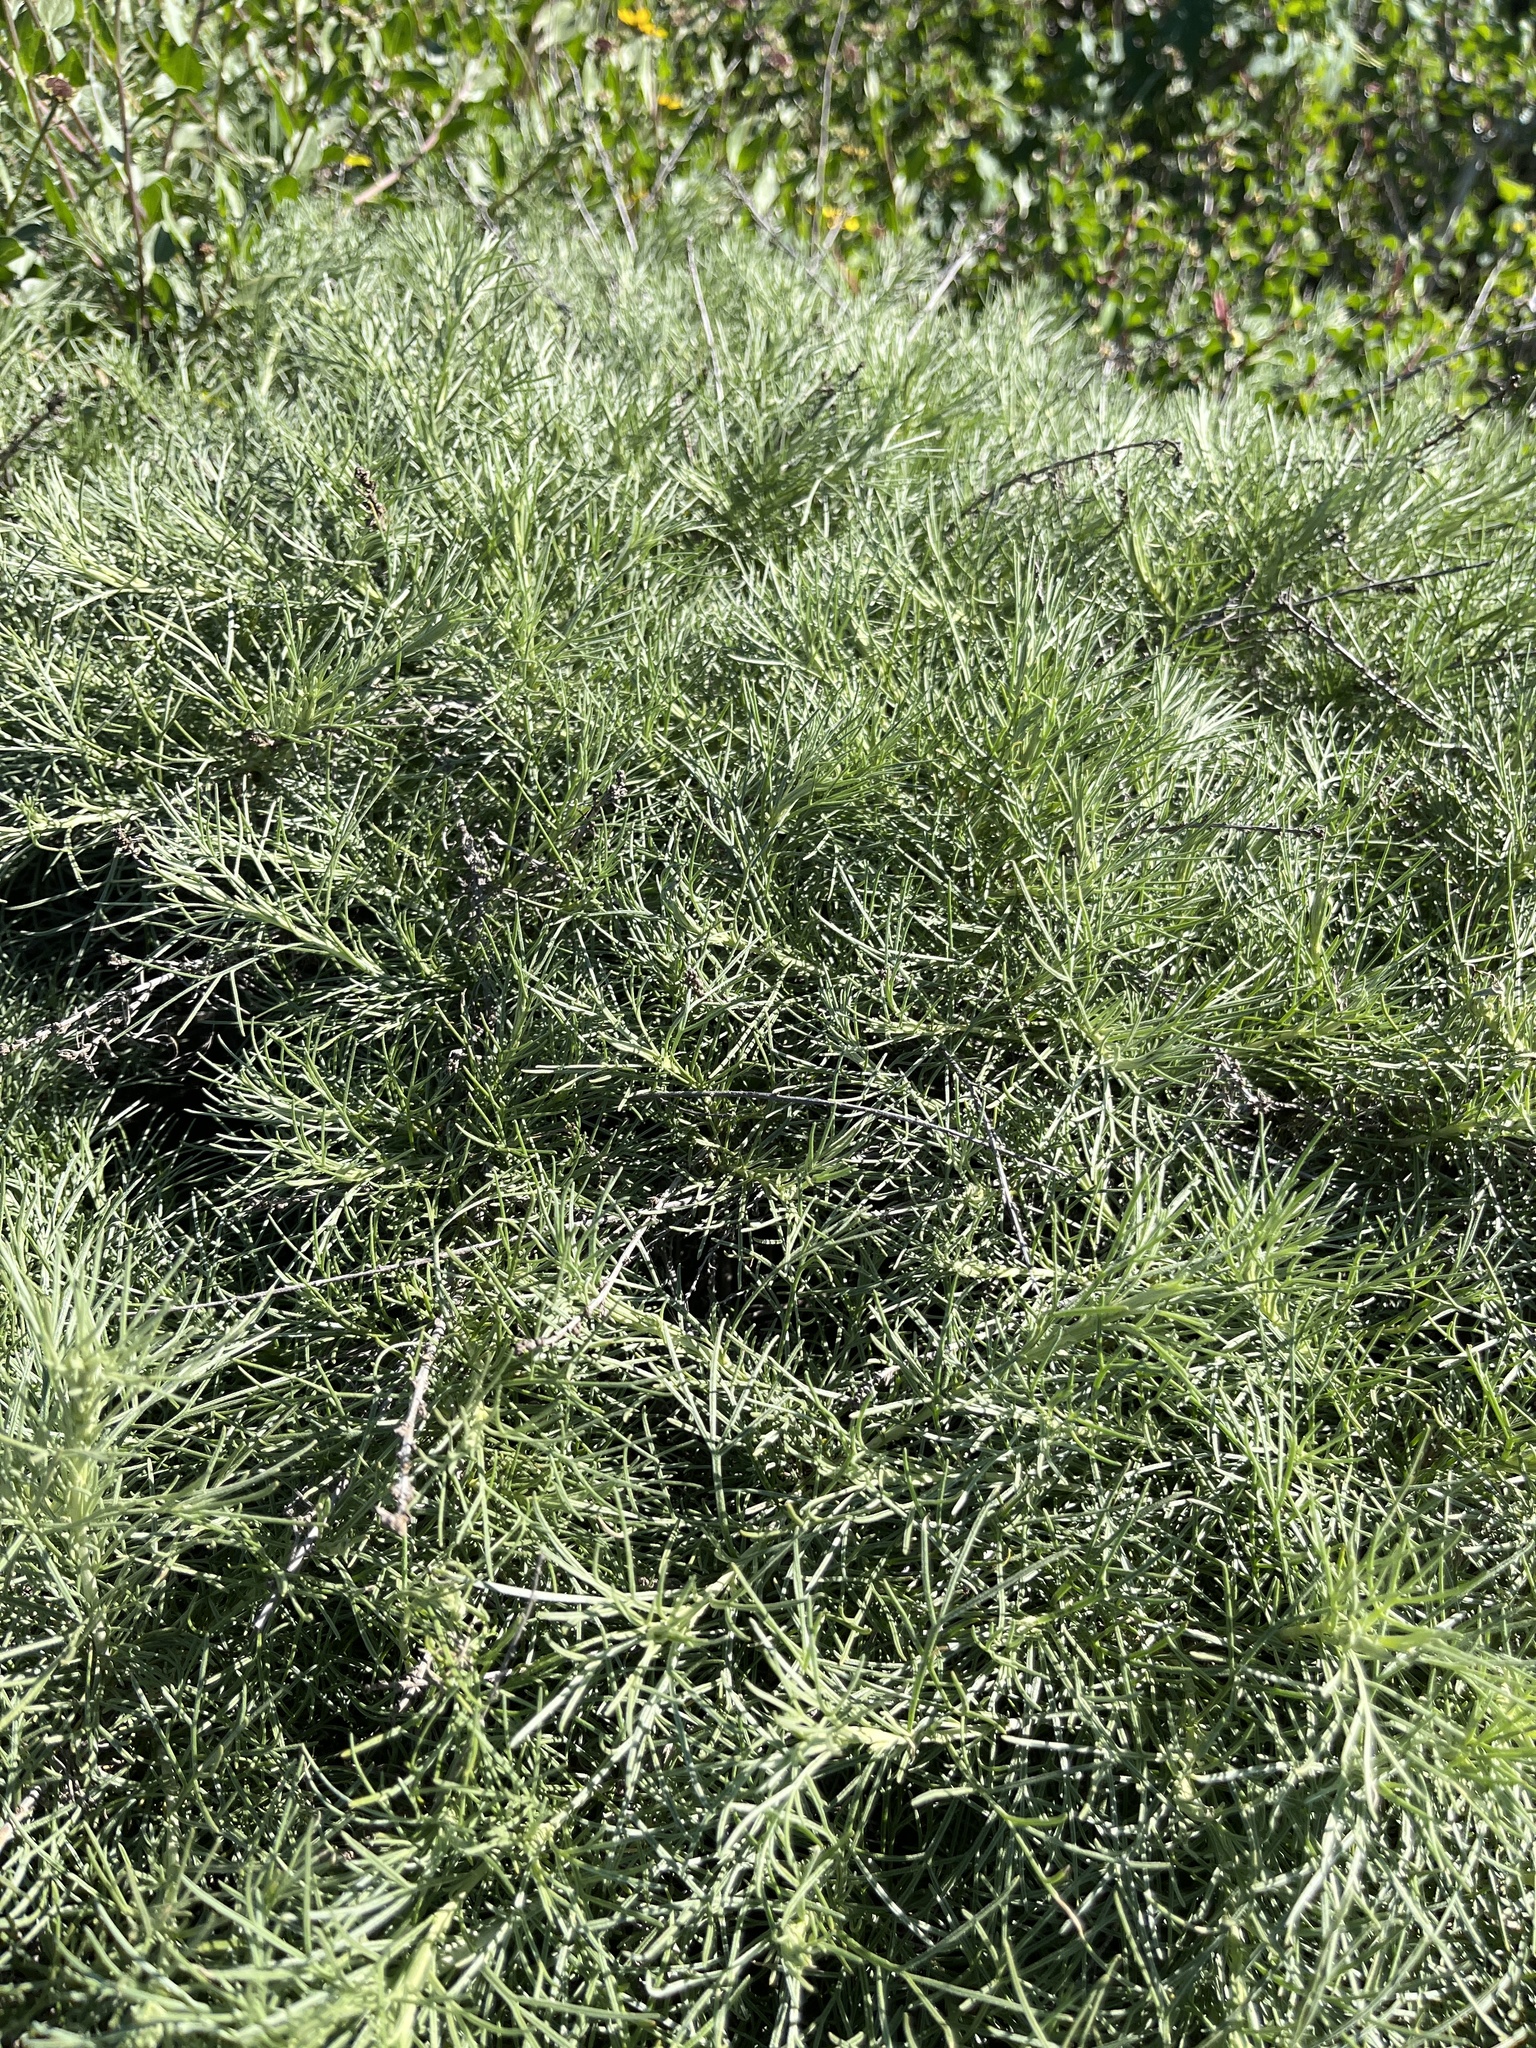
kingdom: Plantae
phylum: Tracheophyta
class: Magnoliopsida
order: Asterales
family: Asteraceae
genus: Artemisia
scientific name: Artemisia californica
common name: California sagebrush
